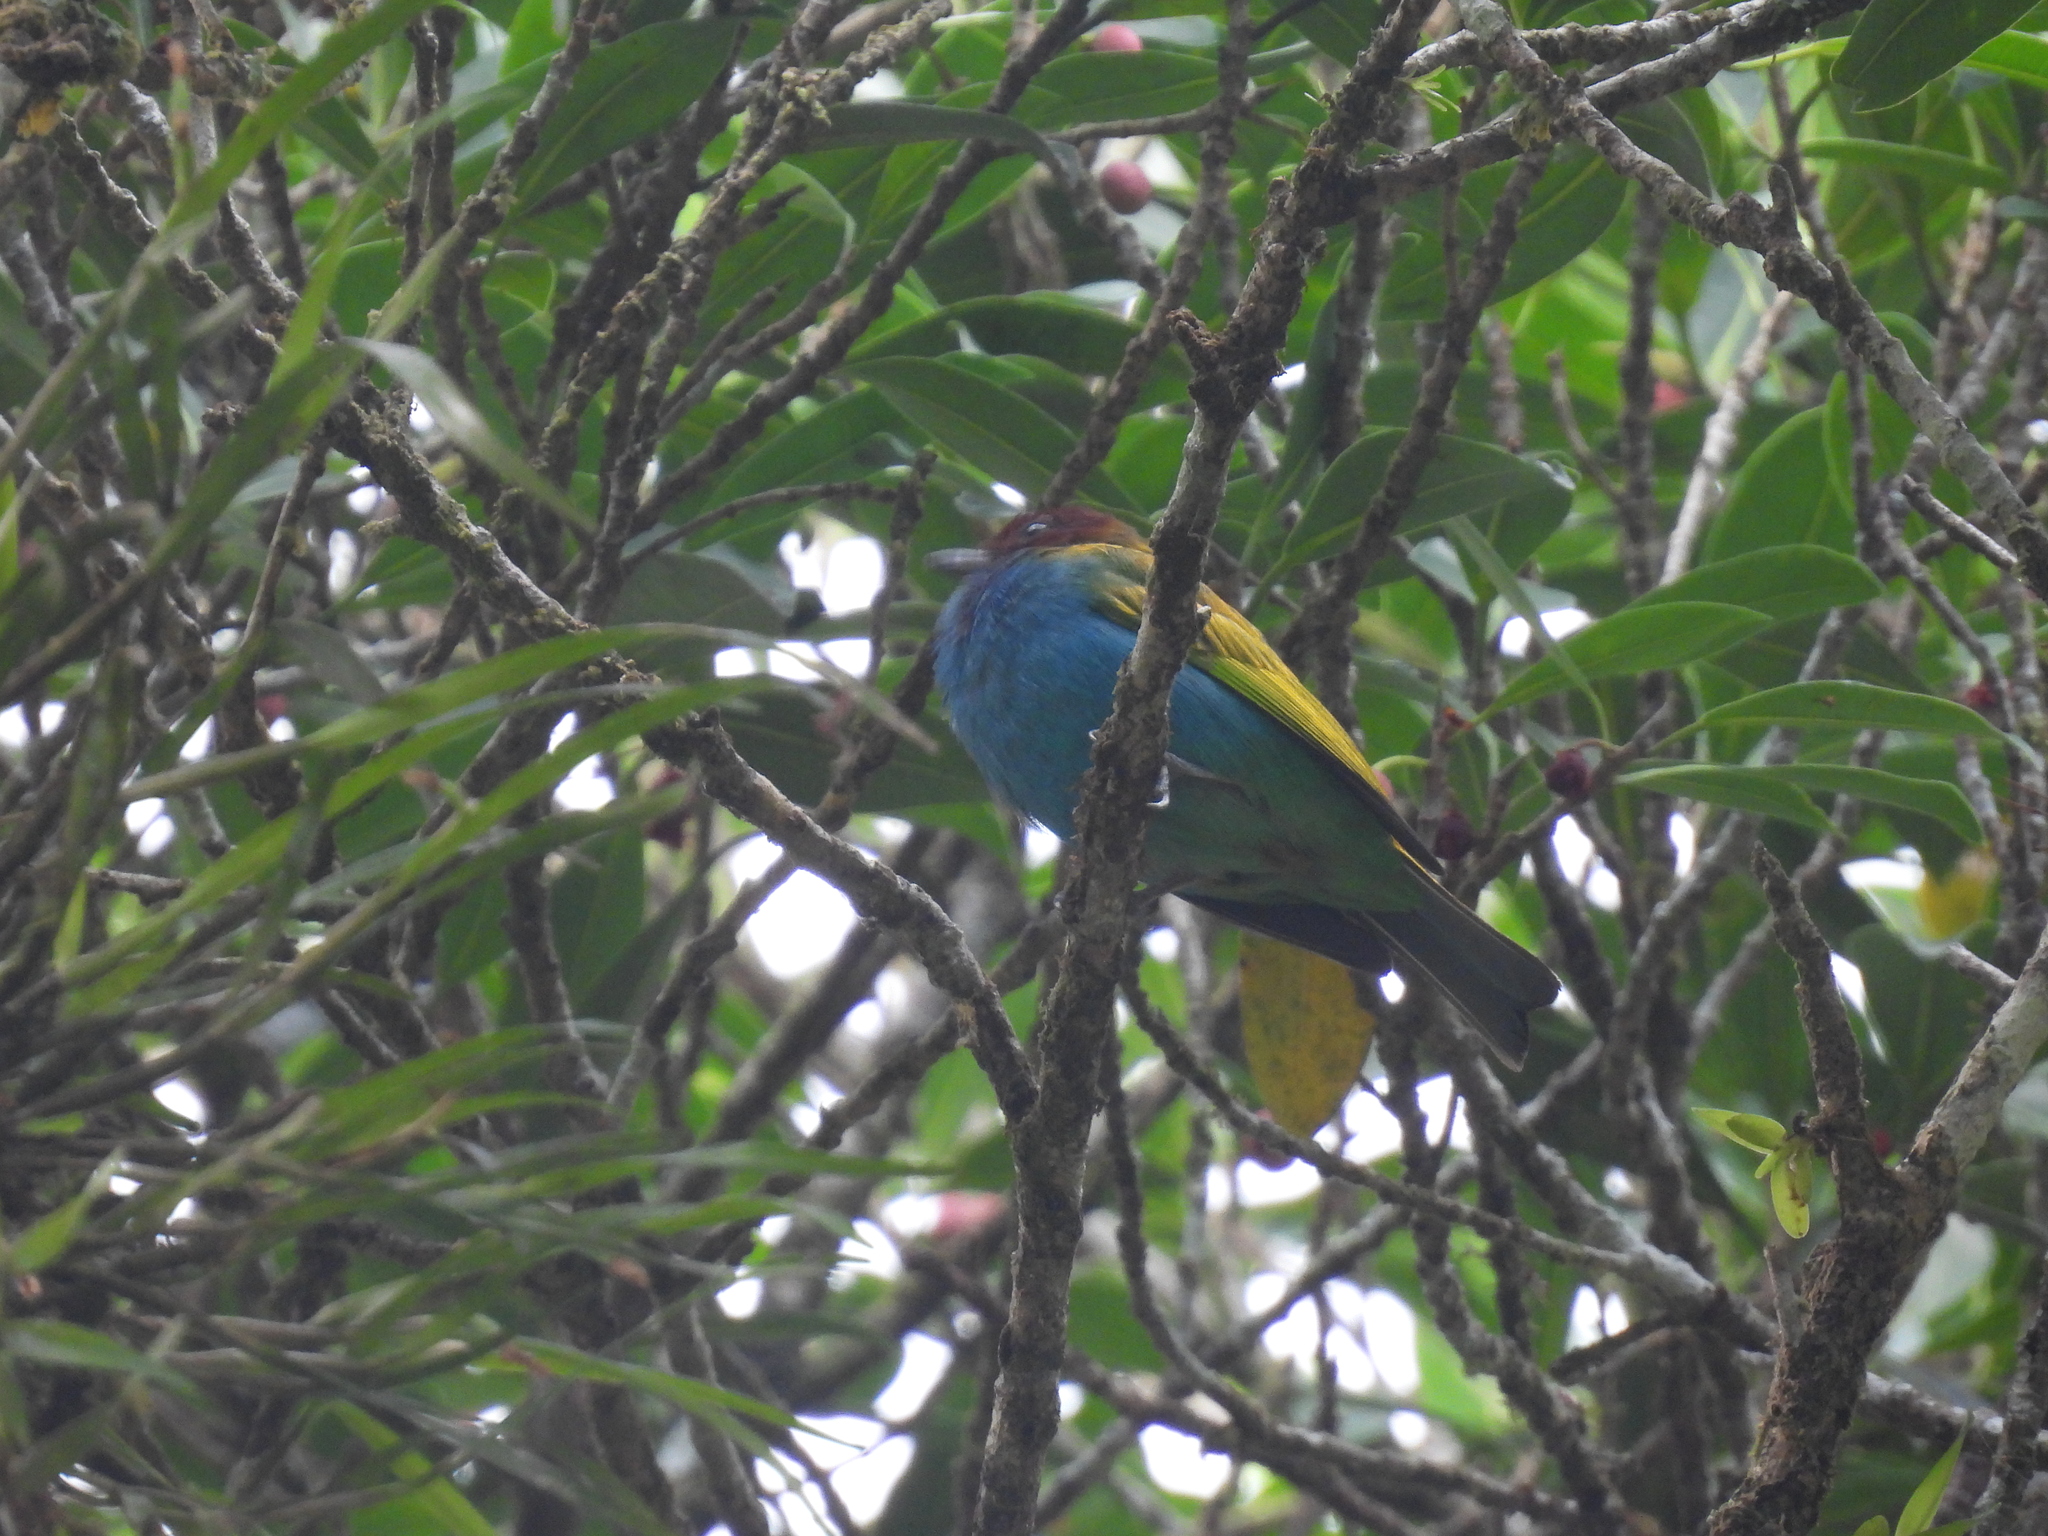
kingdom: Animalia
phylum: Chordata
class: Aves
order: Passeriformes
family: Thraupidae
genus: Tangara
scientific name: Tangara gyrola
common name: Bay-headed tanager
